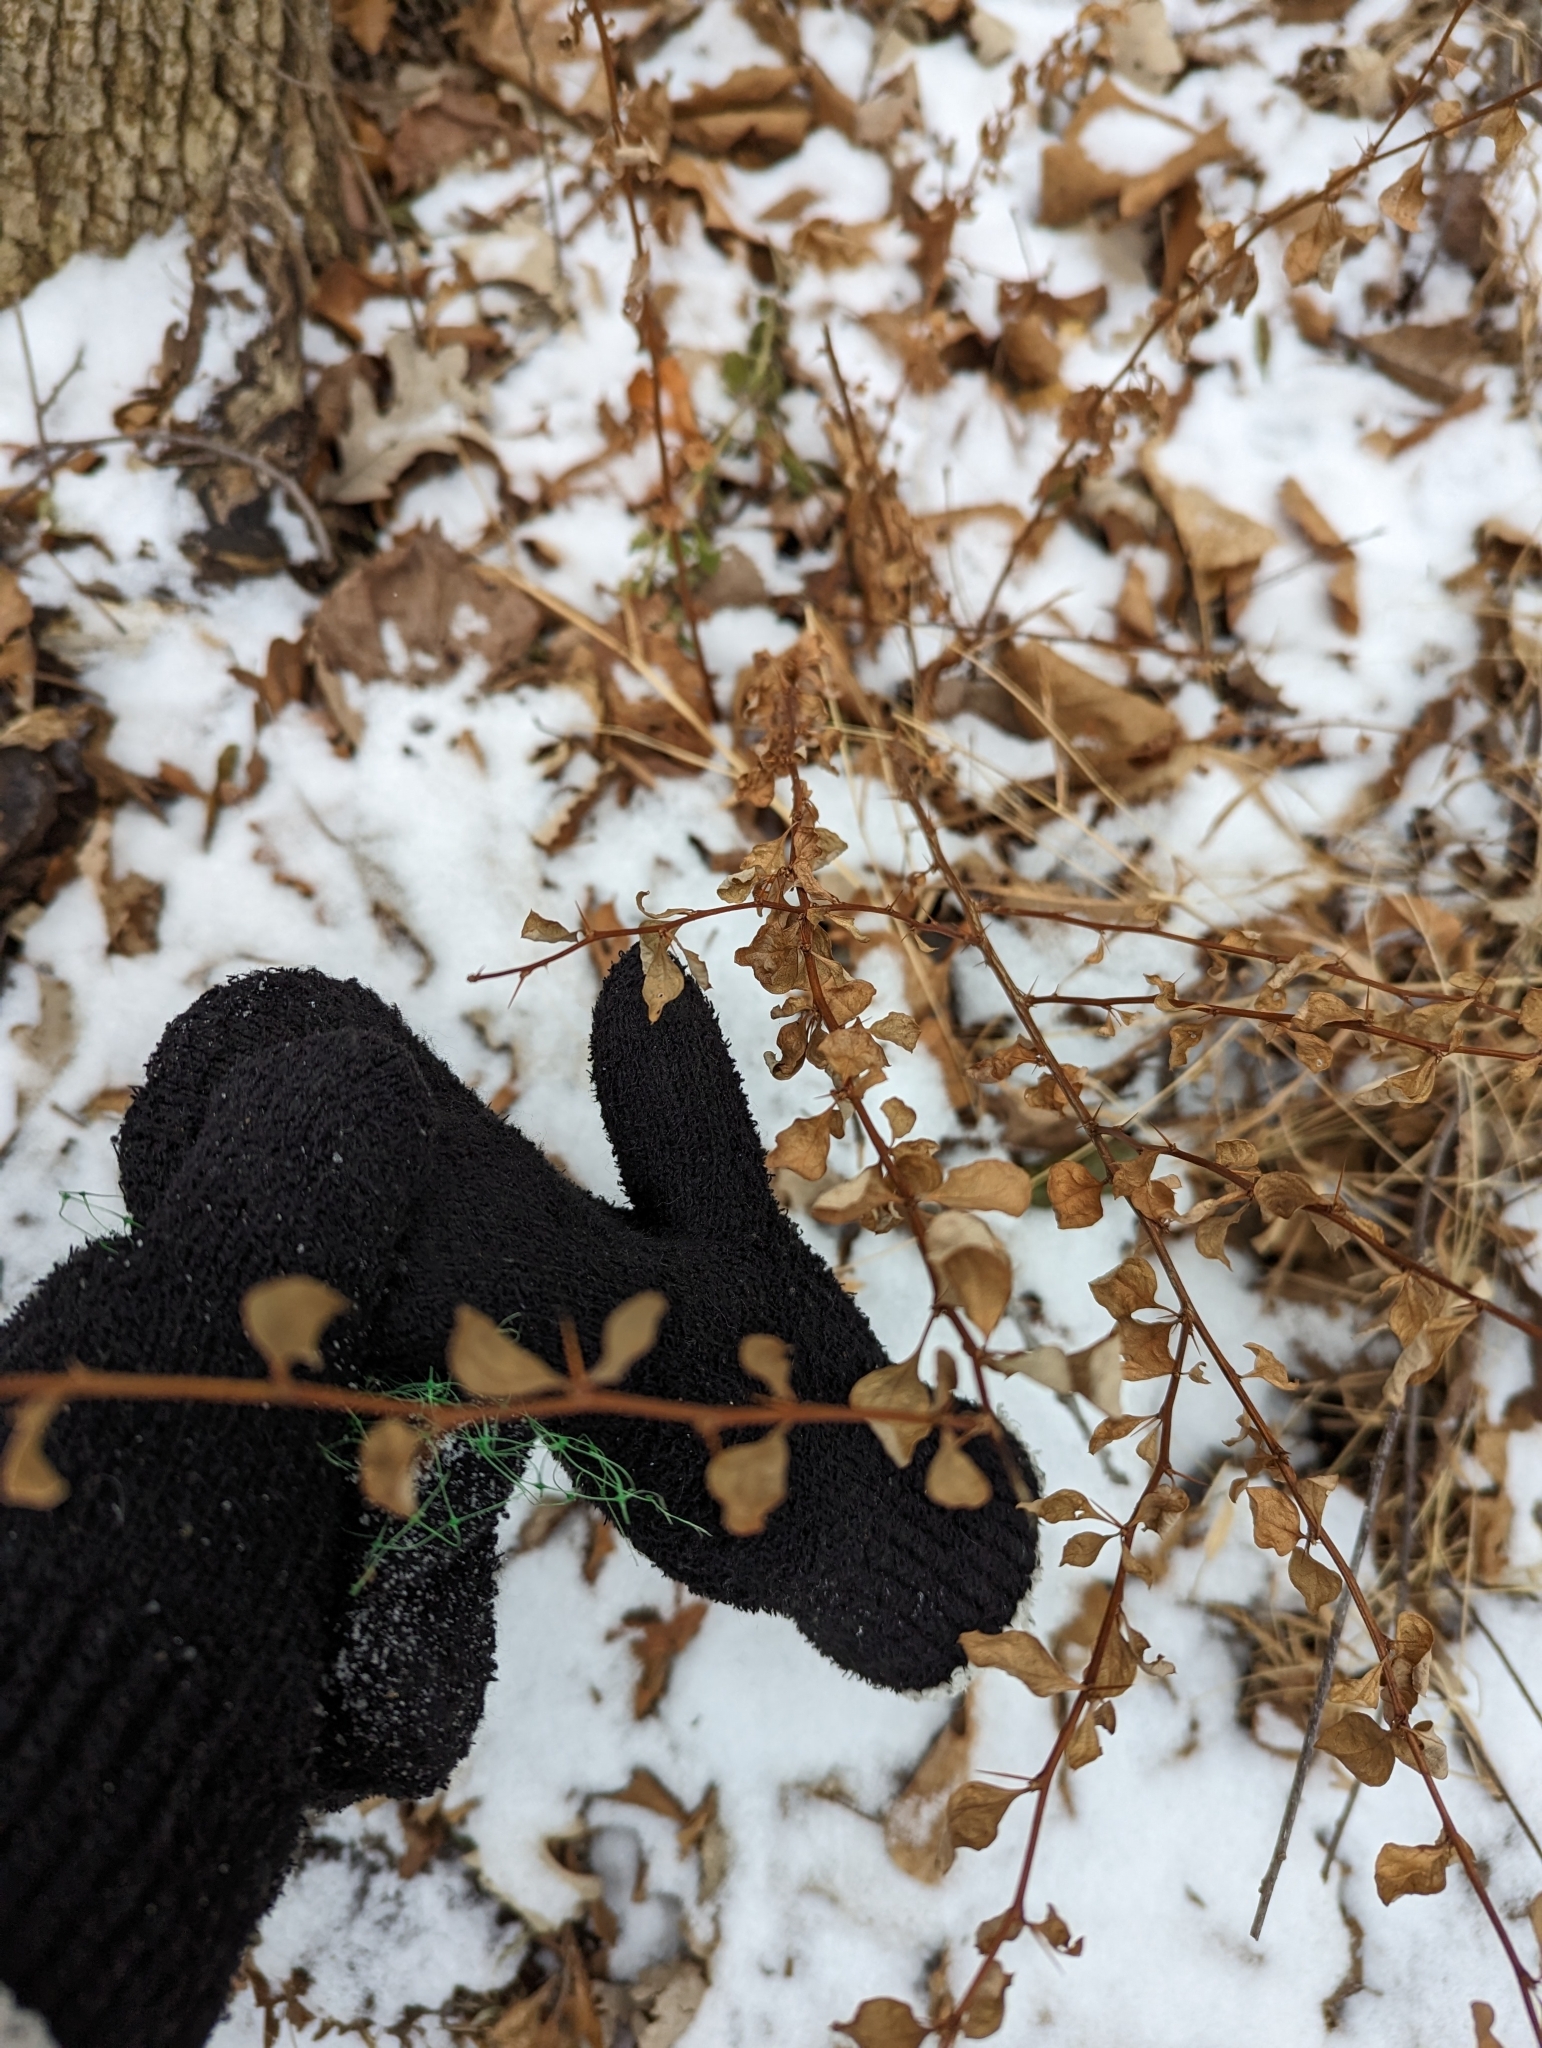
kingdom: Plantae
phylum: Tracheophyta
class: Magnoliopsida
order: Ranunculales
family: Berberidaceae
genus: Berberis
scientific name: Berberis thunbergii
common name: Japanese barberry
